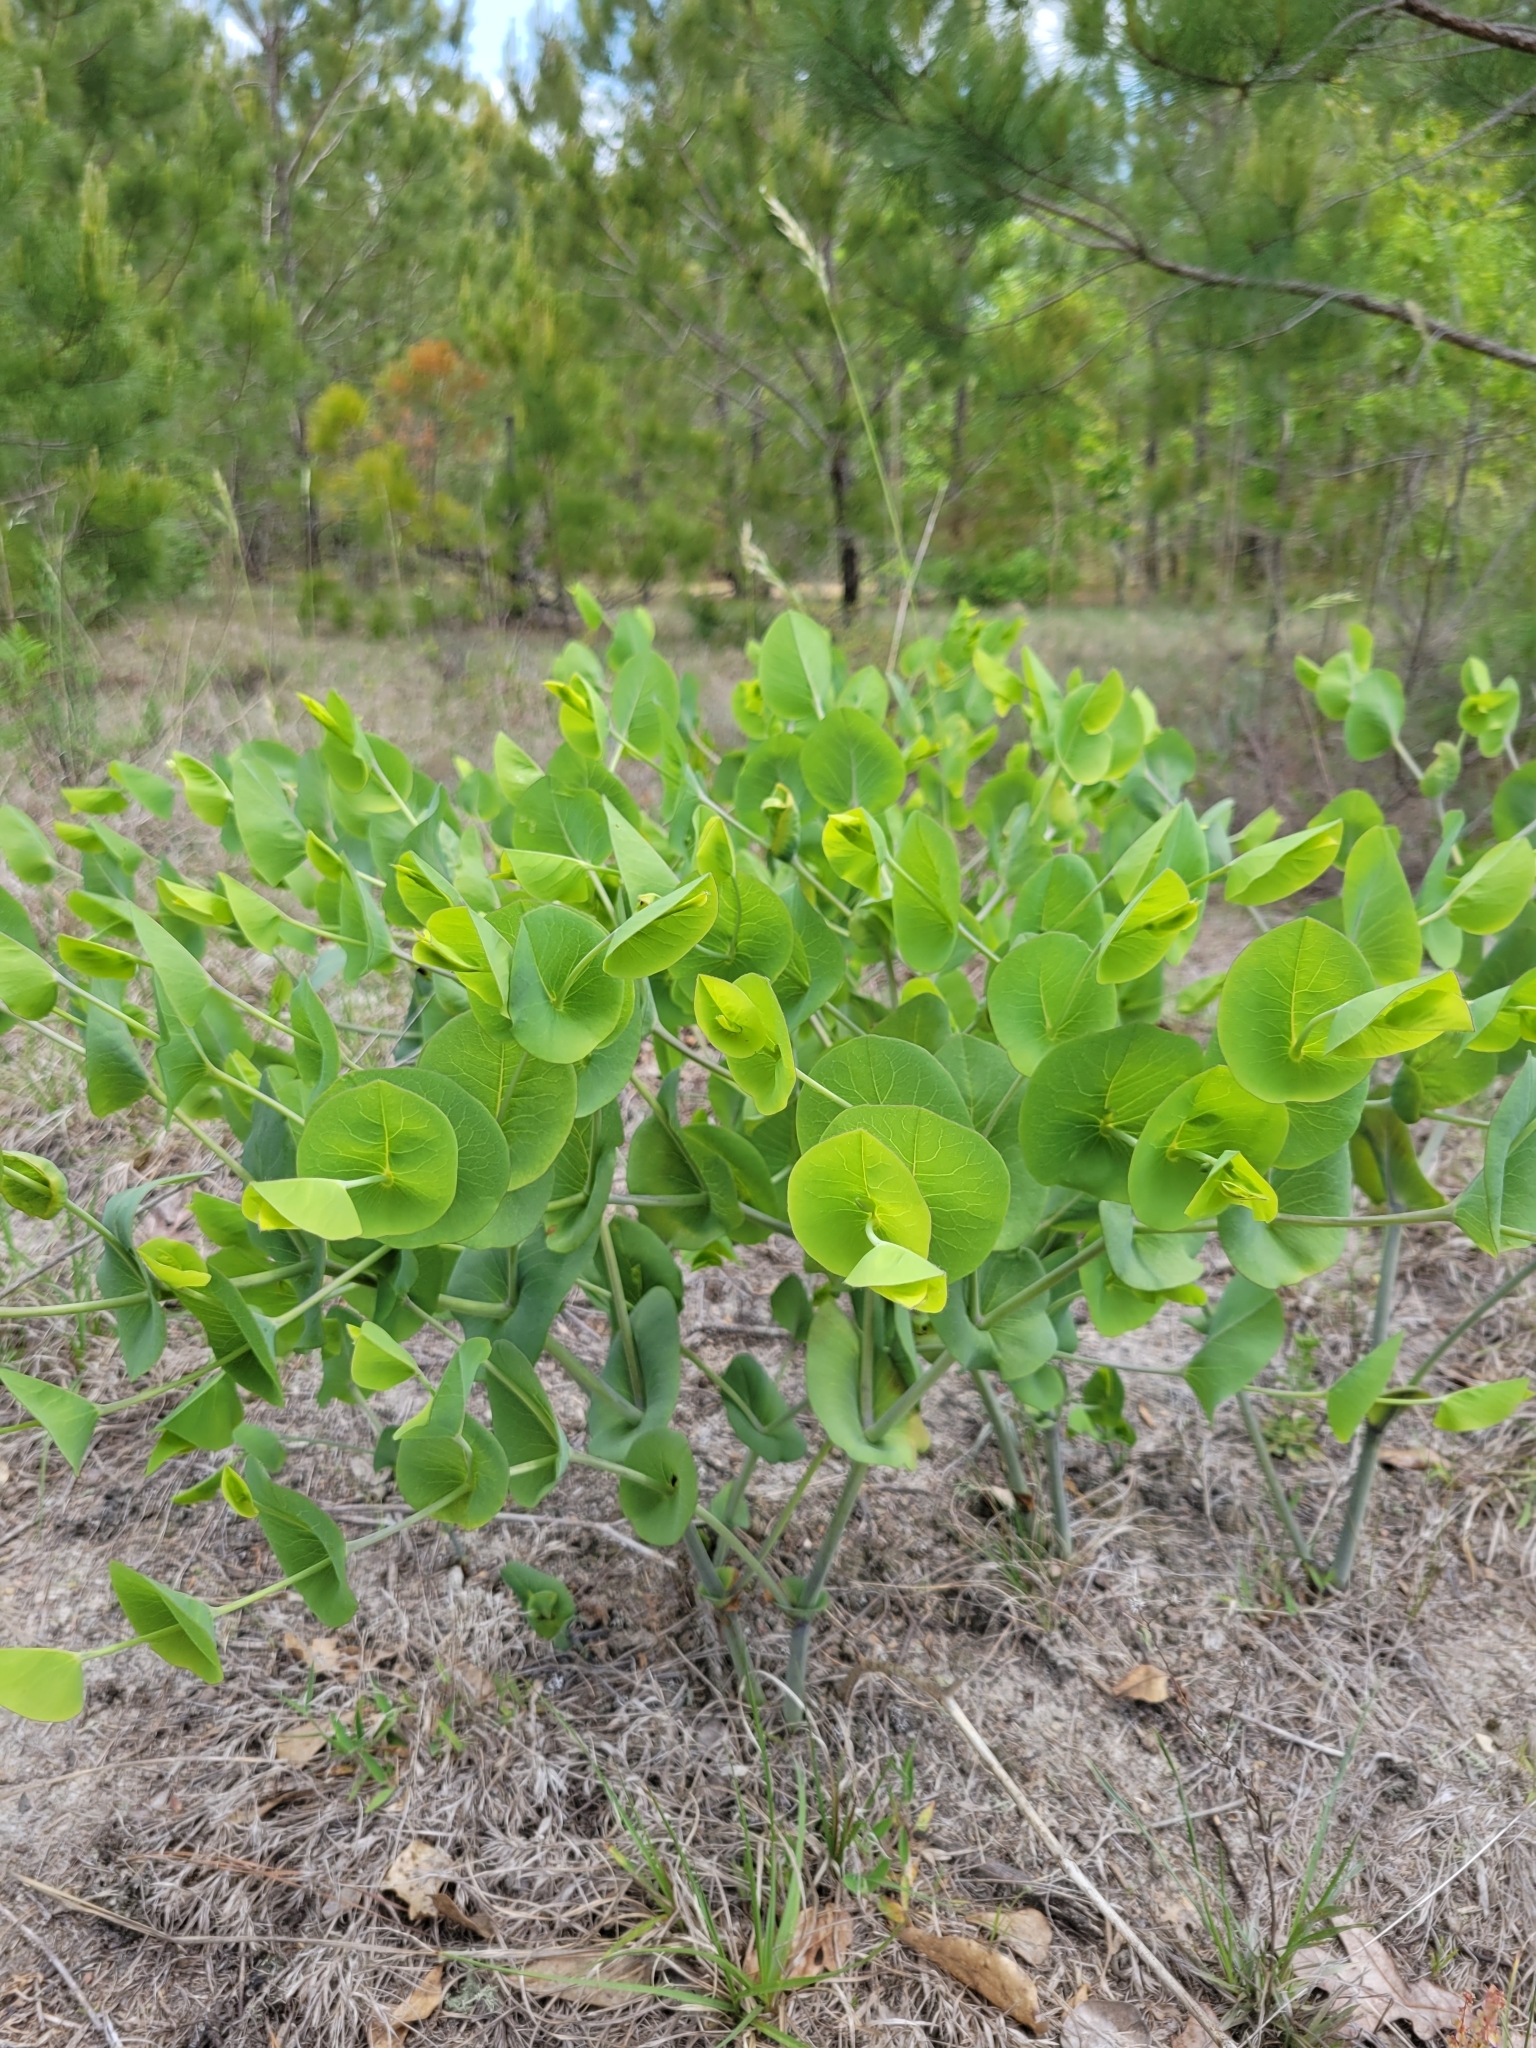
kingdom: Plantae
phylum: Tracheophyta
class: Magnoliopsida
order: Fabales
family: Fabaceae
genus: Baptisia
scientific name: Baptisia perfoliata
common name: Catbells
